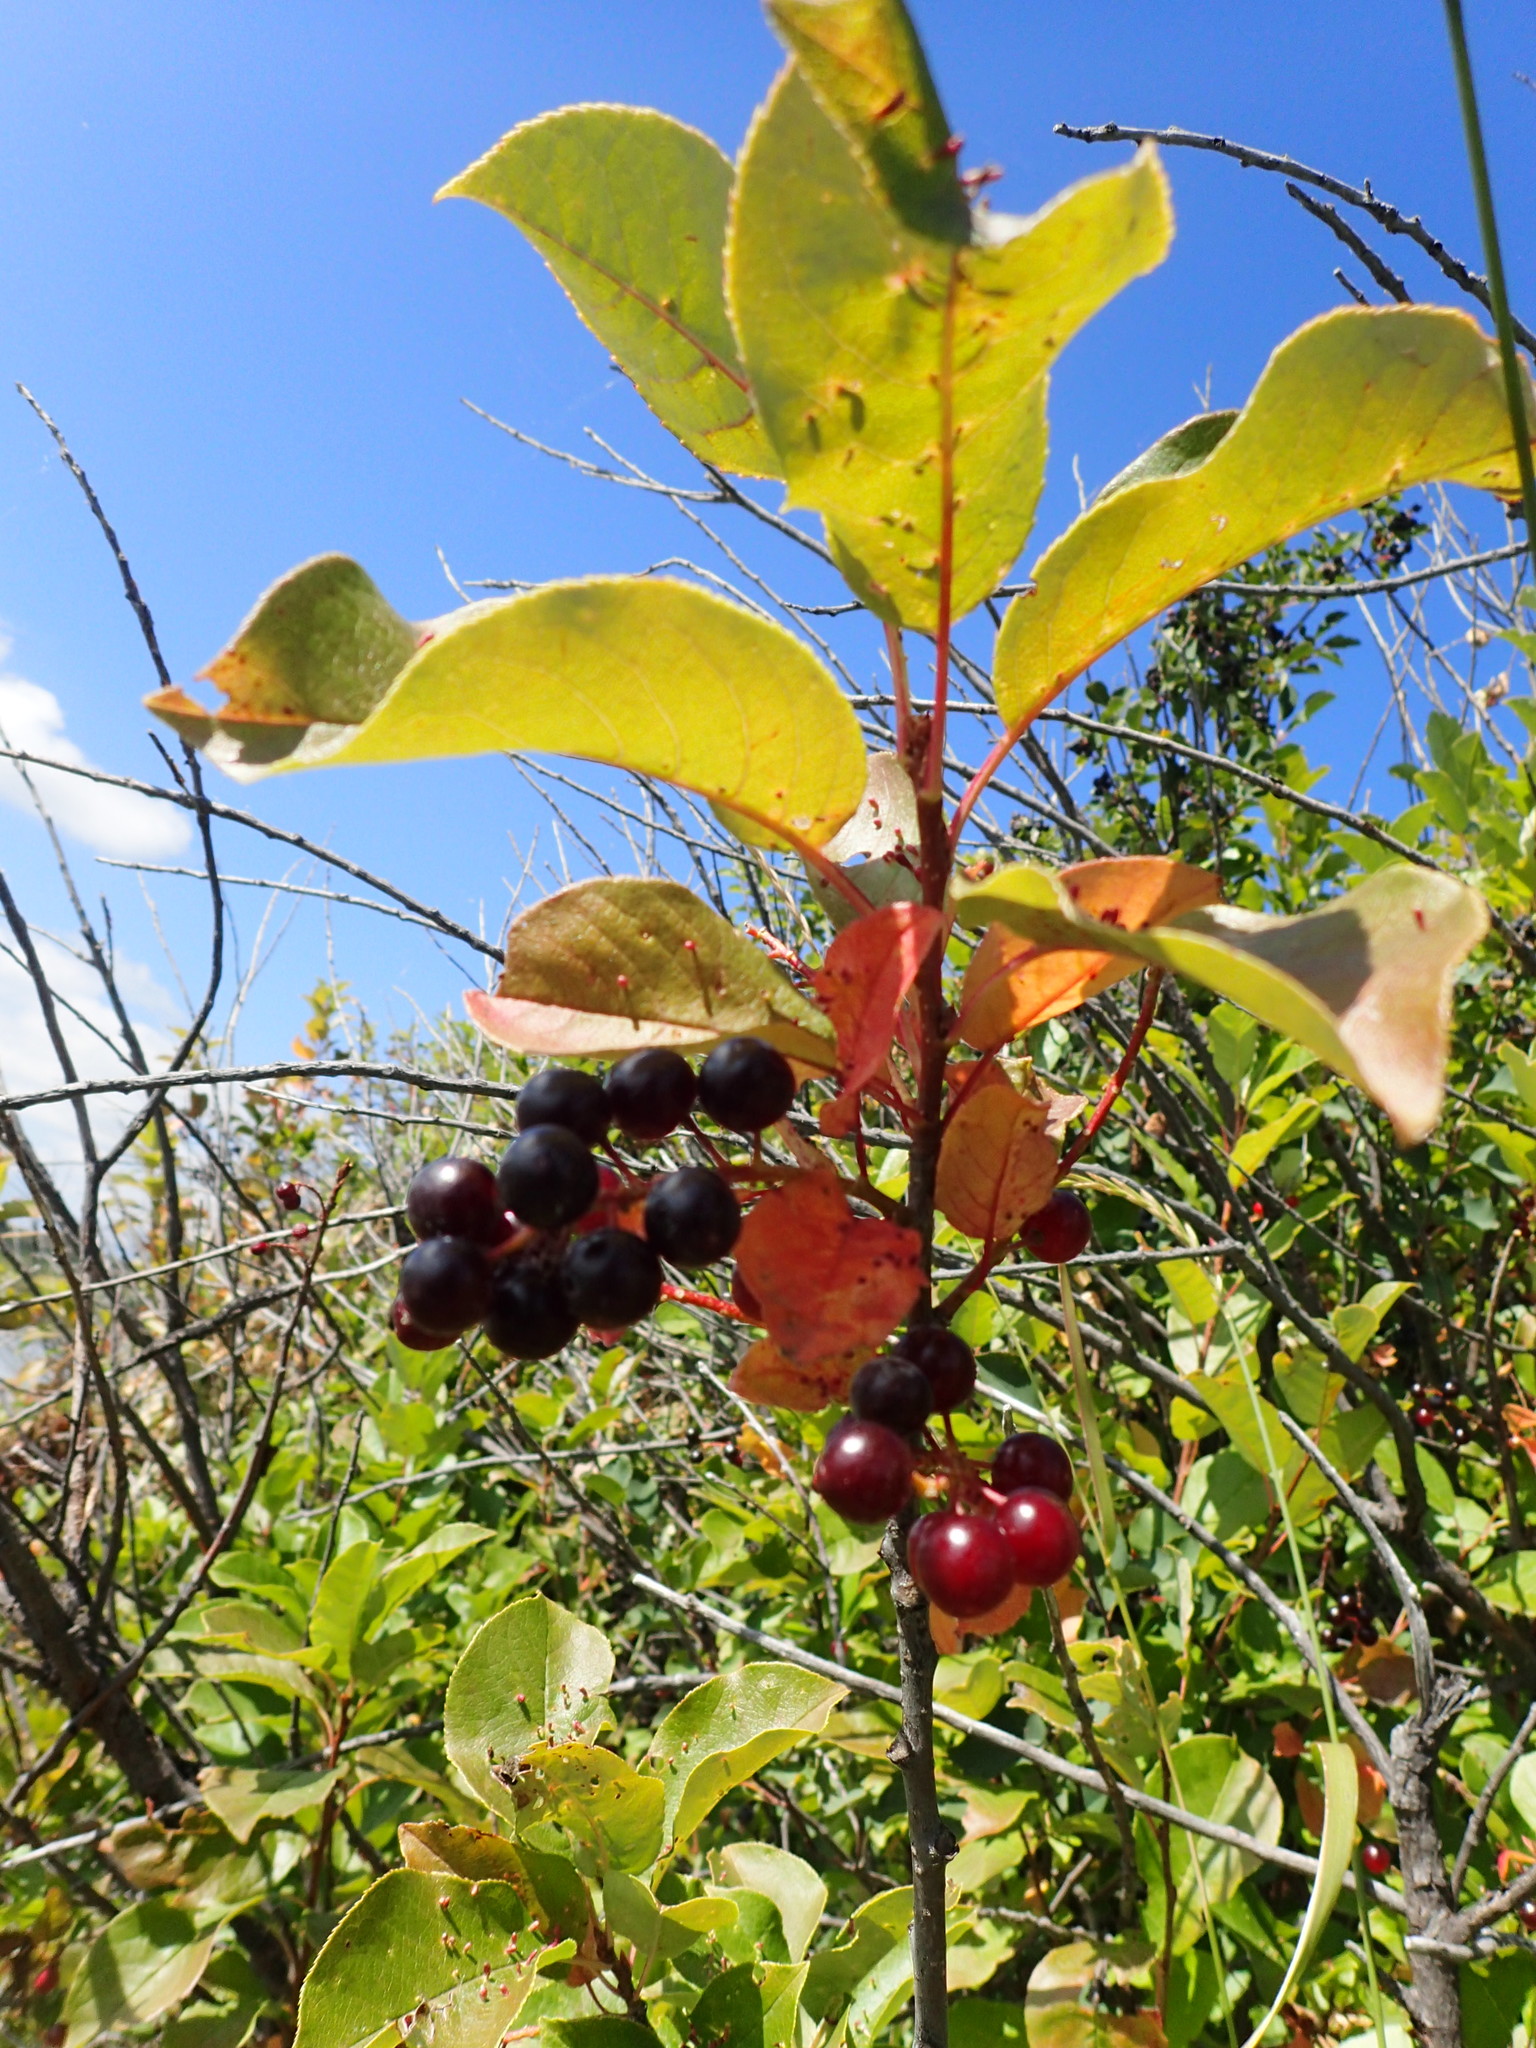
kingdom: Plantae
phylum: Tracheophyta
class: Magnoliopsida
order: Rosales
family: Rosaceae
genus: Prunus
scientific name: Prunus virginiana
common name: Chokecherry
